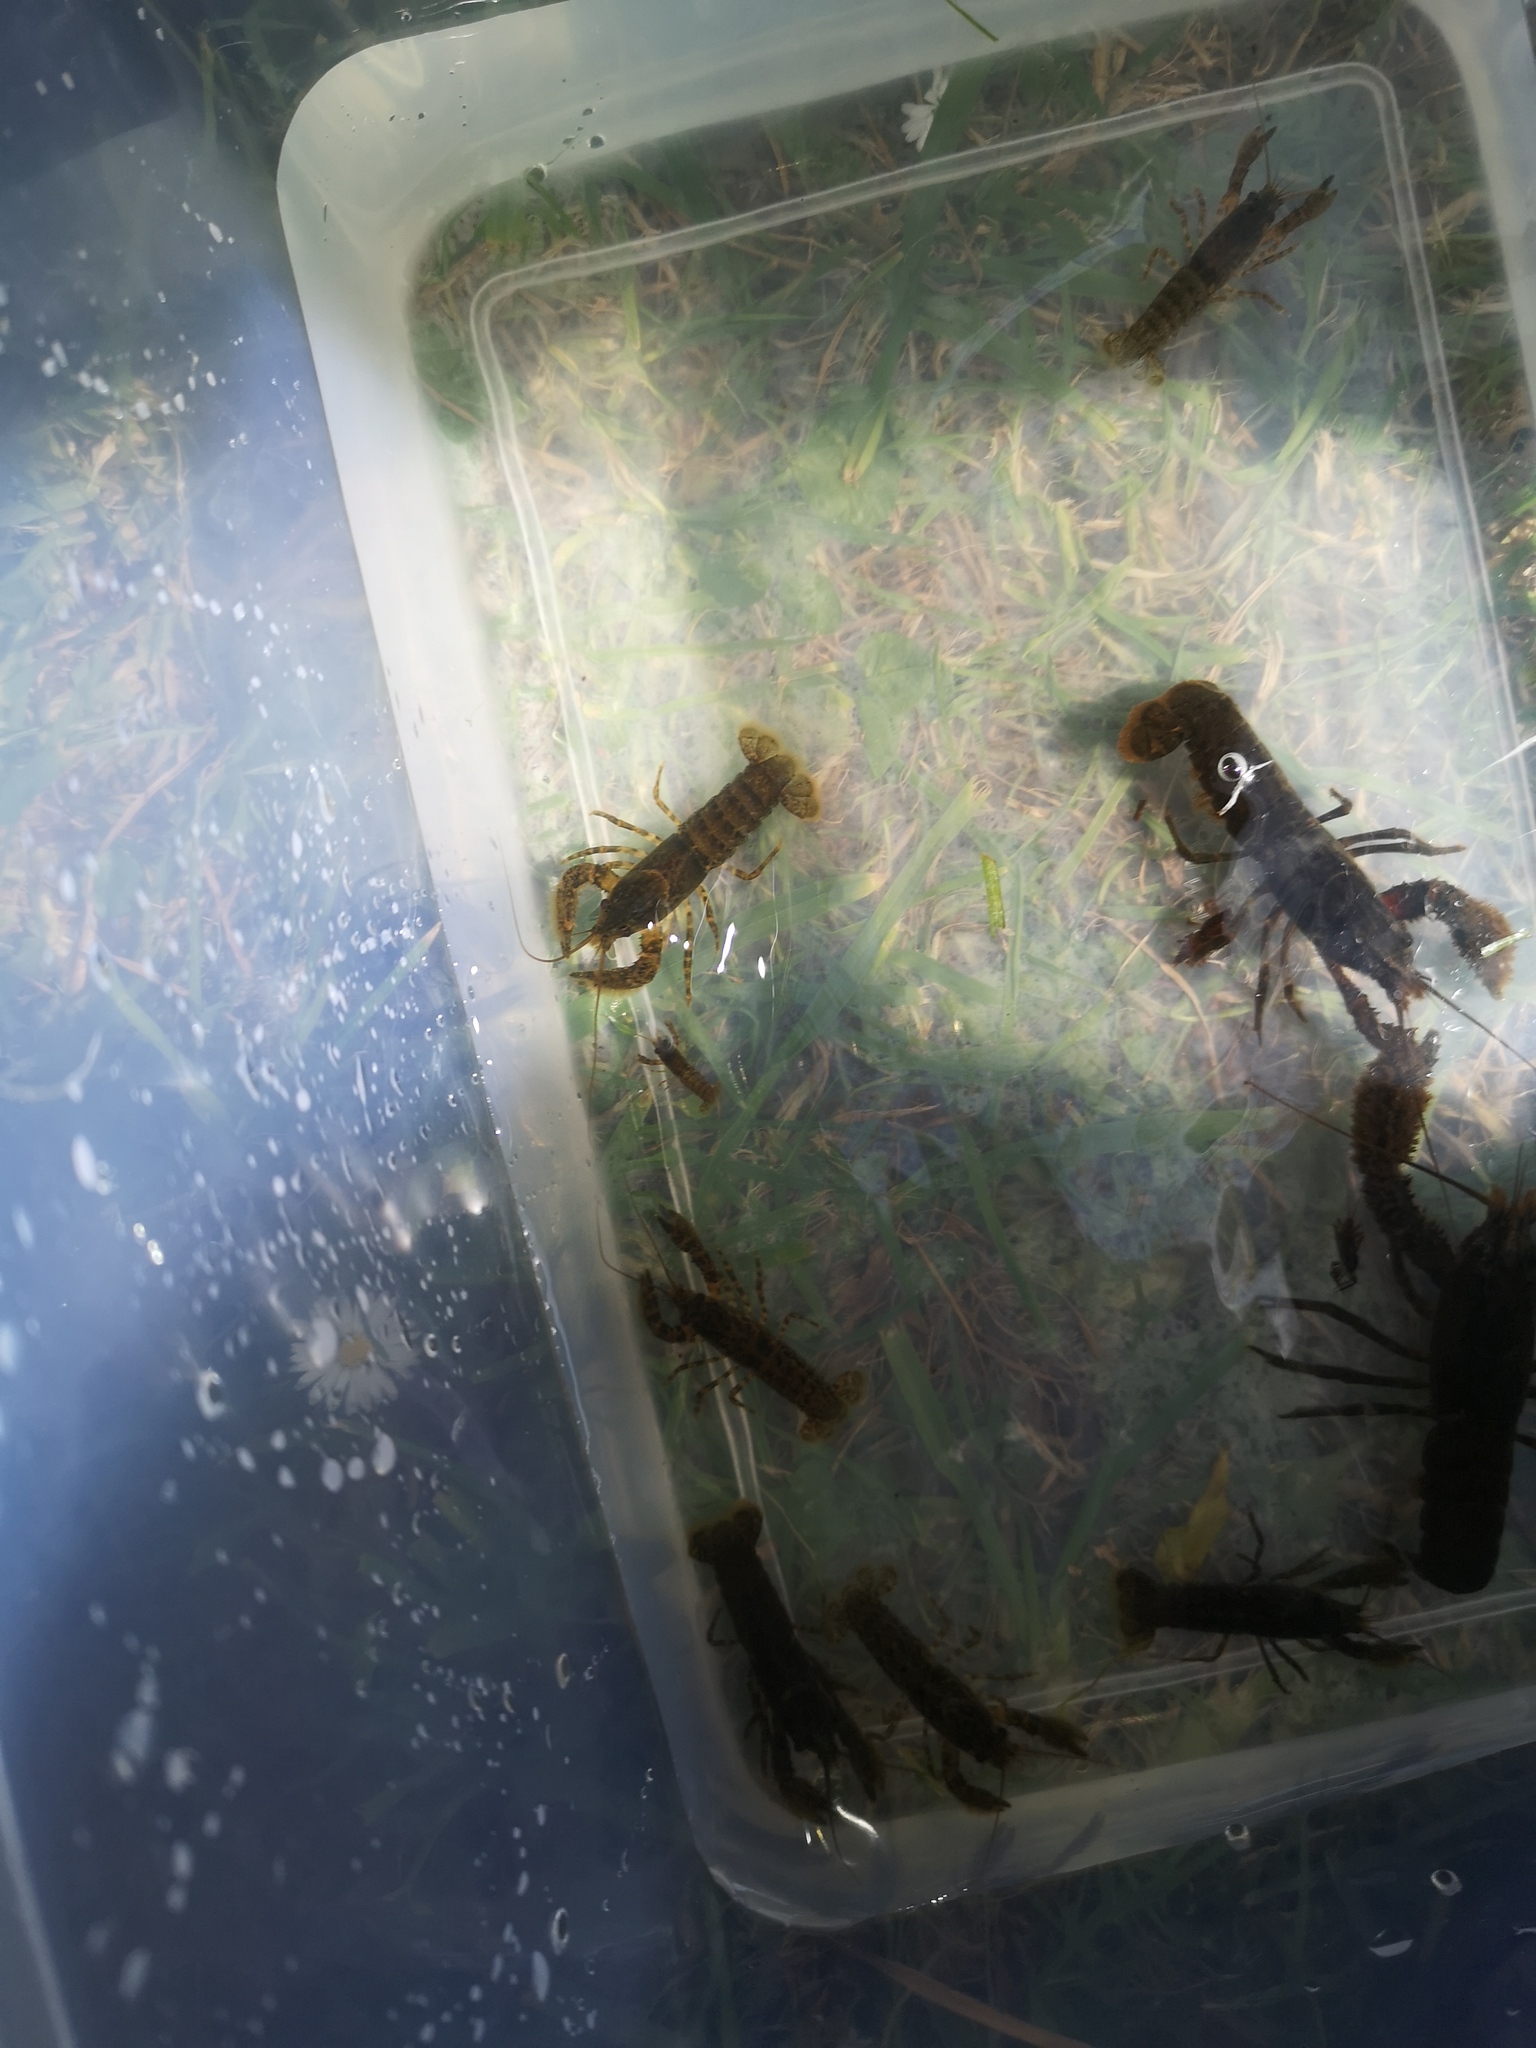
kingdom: Animalia
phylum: Arthropoda
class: Malacostraca
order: Decapoda
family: Parastacidae
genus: Paranephrops
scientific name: Paranephrops zealandicus
